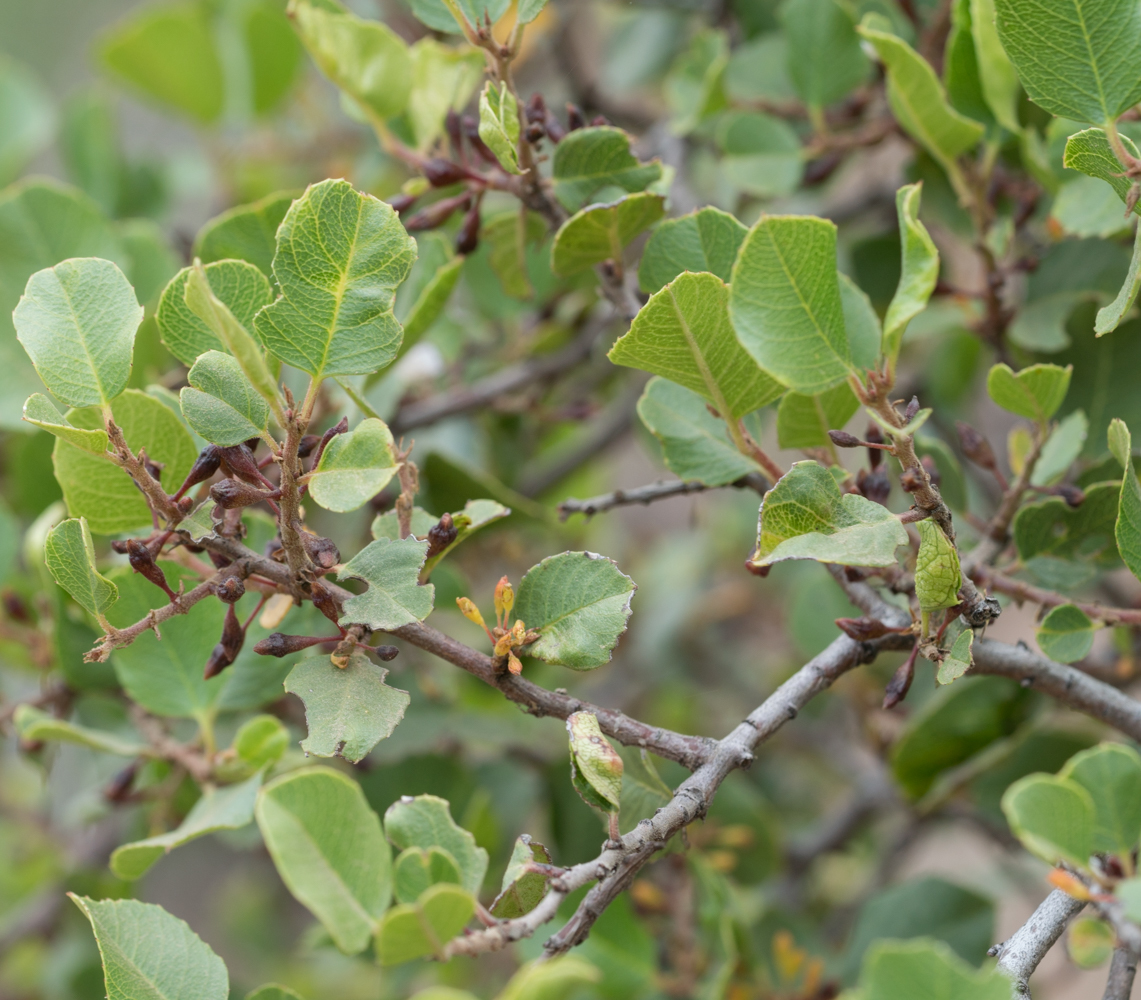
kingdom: Plantae
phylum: Tracheophyta
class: Magnoliopsida
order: Rosales
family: Rhamnaceae
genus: Endotropis
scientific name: Endotropis crocea
